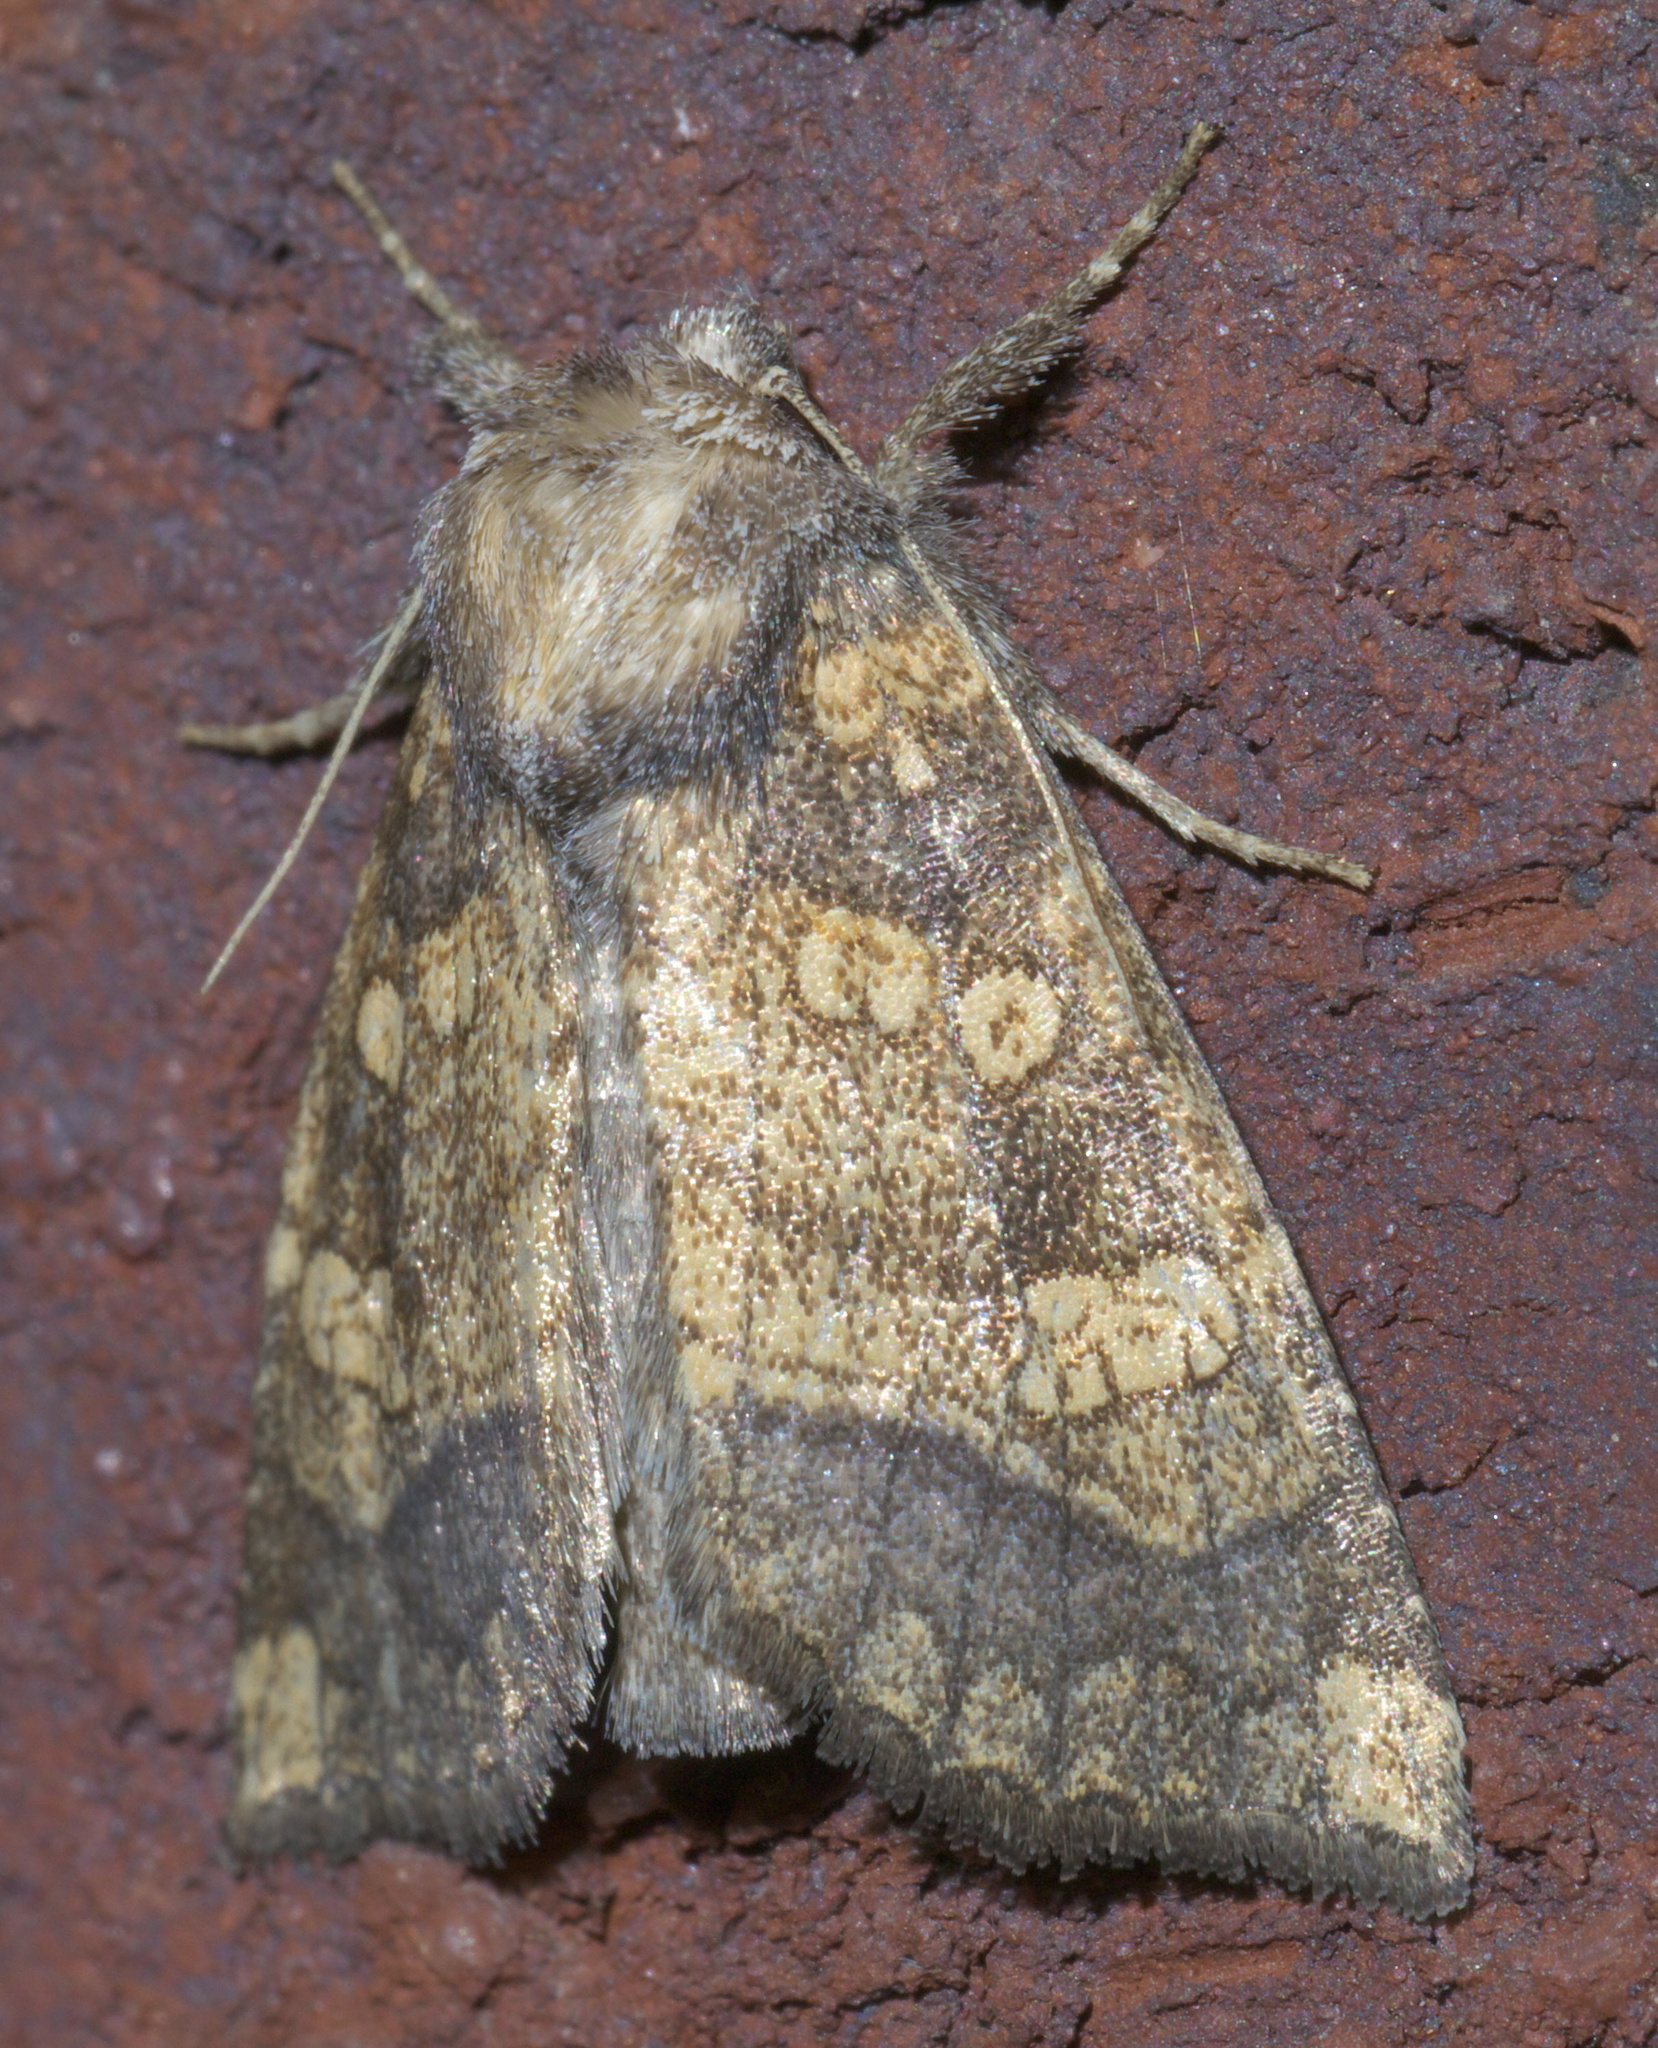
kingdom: Animalia
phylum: Arthropoda
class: Insecta
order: Lepidoptera
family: Noctuidae
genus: Papaipema
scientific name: Papaipema cataphracta
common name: Burdock borer
